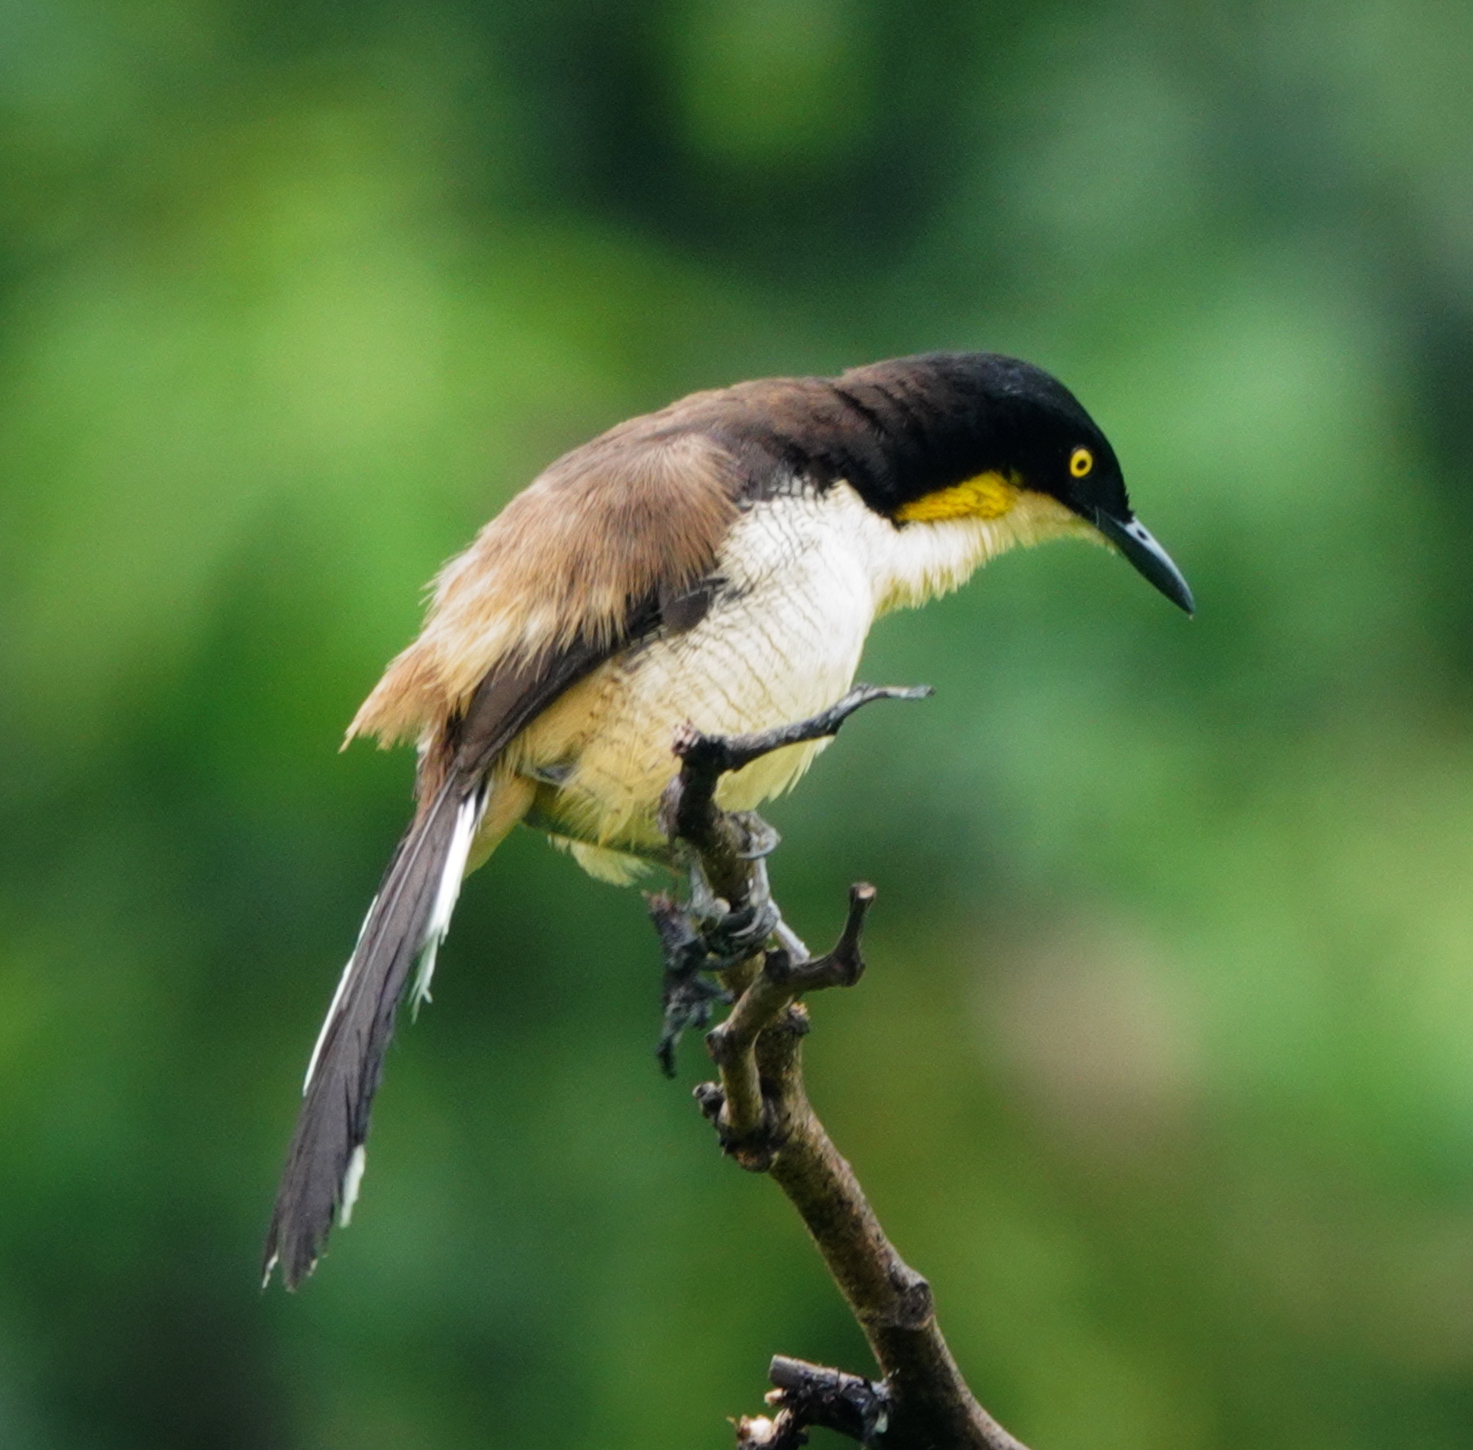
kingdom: Animalia
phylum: Chordata
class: Aves
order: Passeriformes
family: Donacobiidae
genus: Donacobius
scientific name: Donacobius atricapilla
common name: Black-capped donacobius
